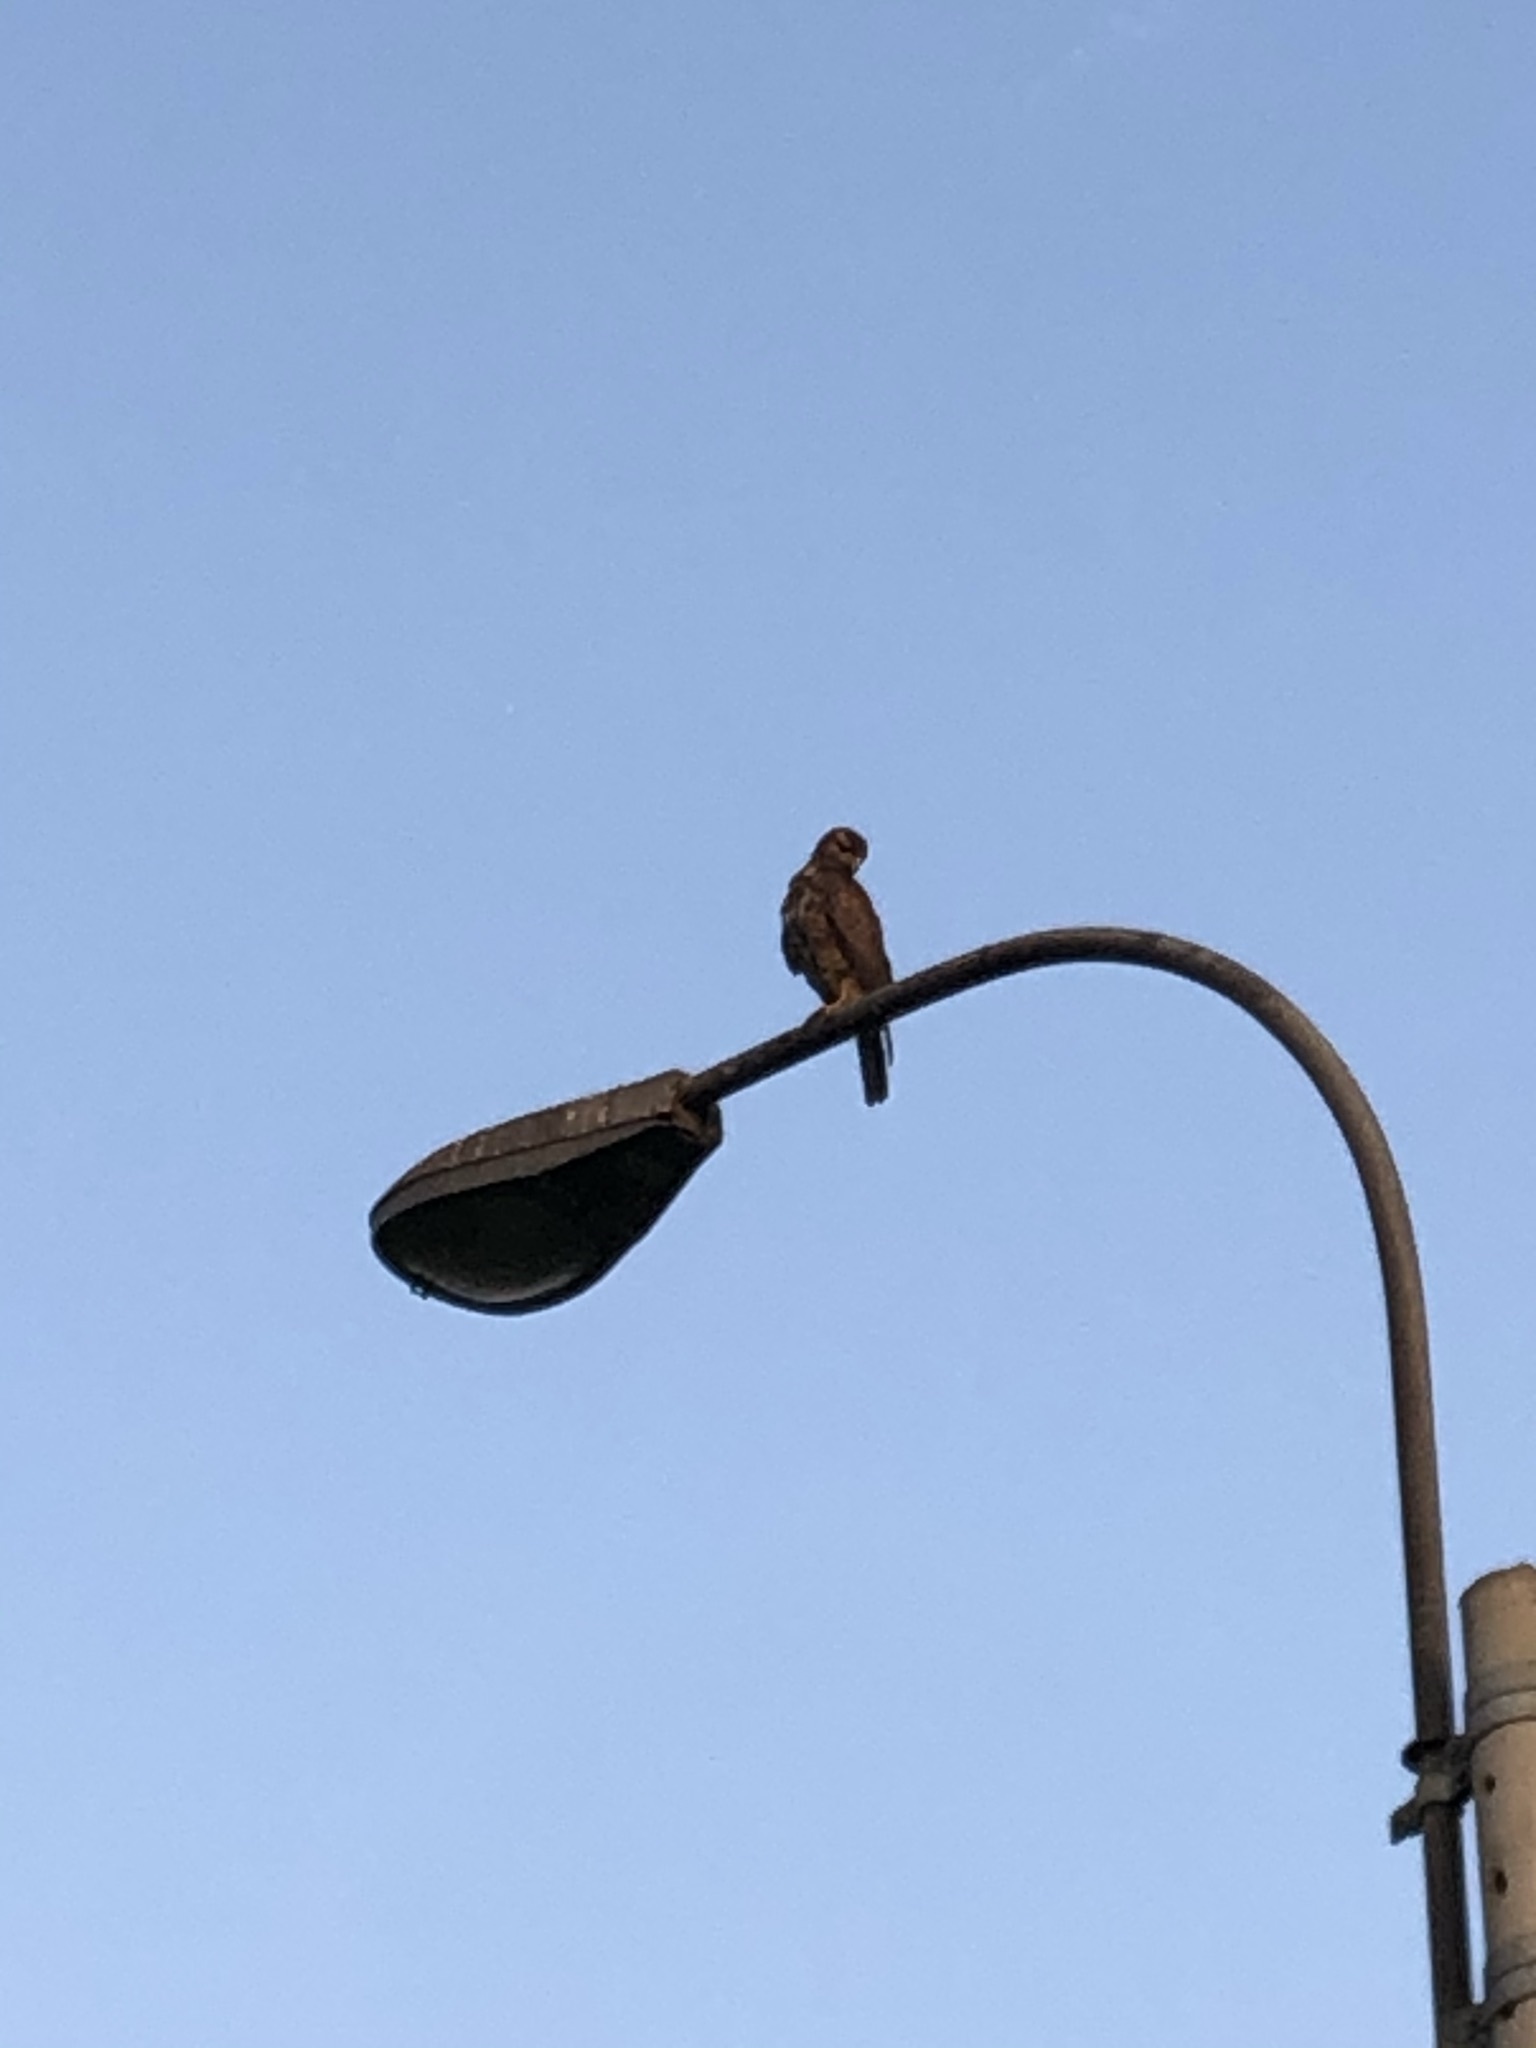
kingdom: Animalia
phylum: Chordata
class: Aves
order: Accipitriformes
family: Accipitridae
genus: Parabuteo
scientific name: Parabuteo unicinctus
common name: Harris's hawk
